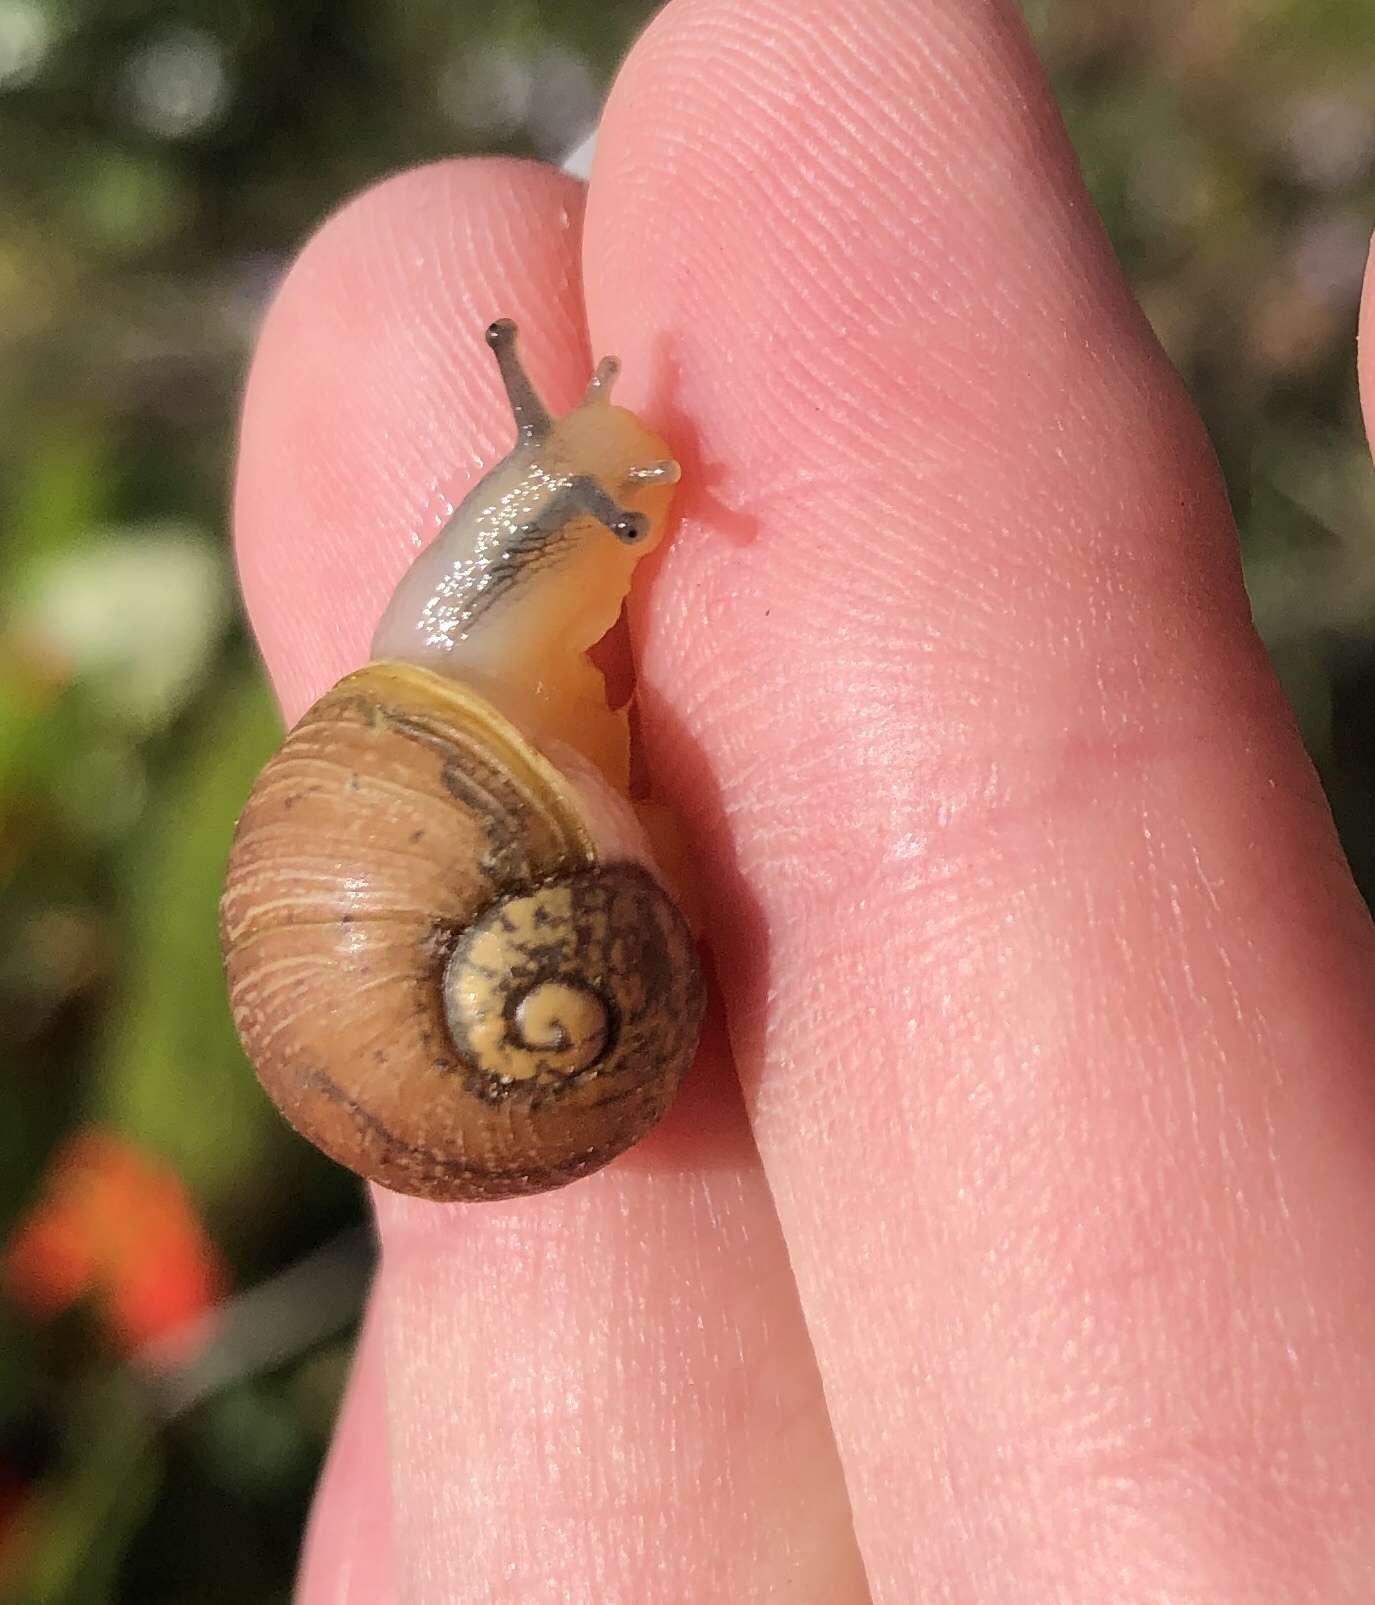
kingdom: Animalia
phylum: Mollusca
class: Gastropoda
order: Stylommatophora
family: Helicidae
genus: Cantareus
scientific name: Cantareus apertus
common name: Green gardensnail
